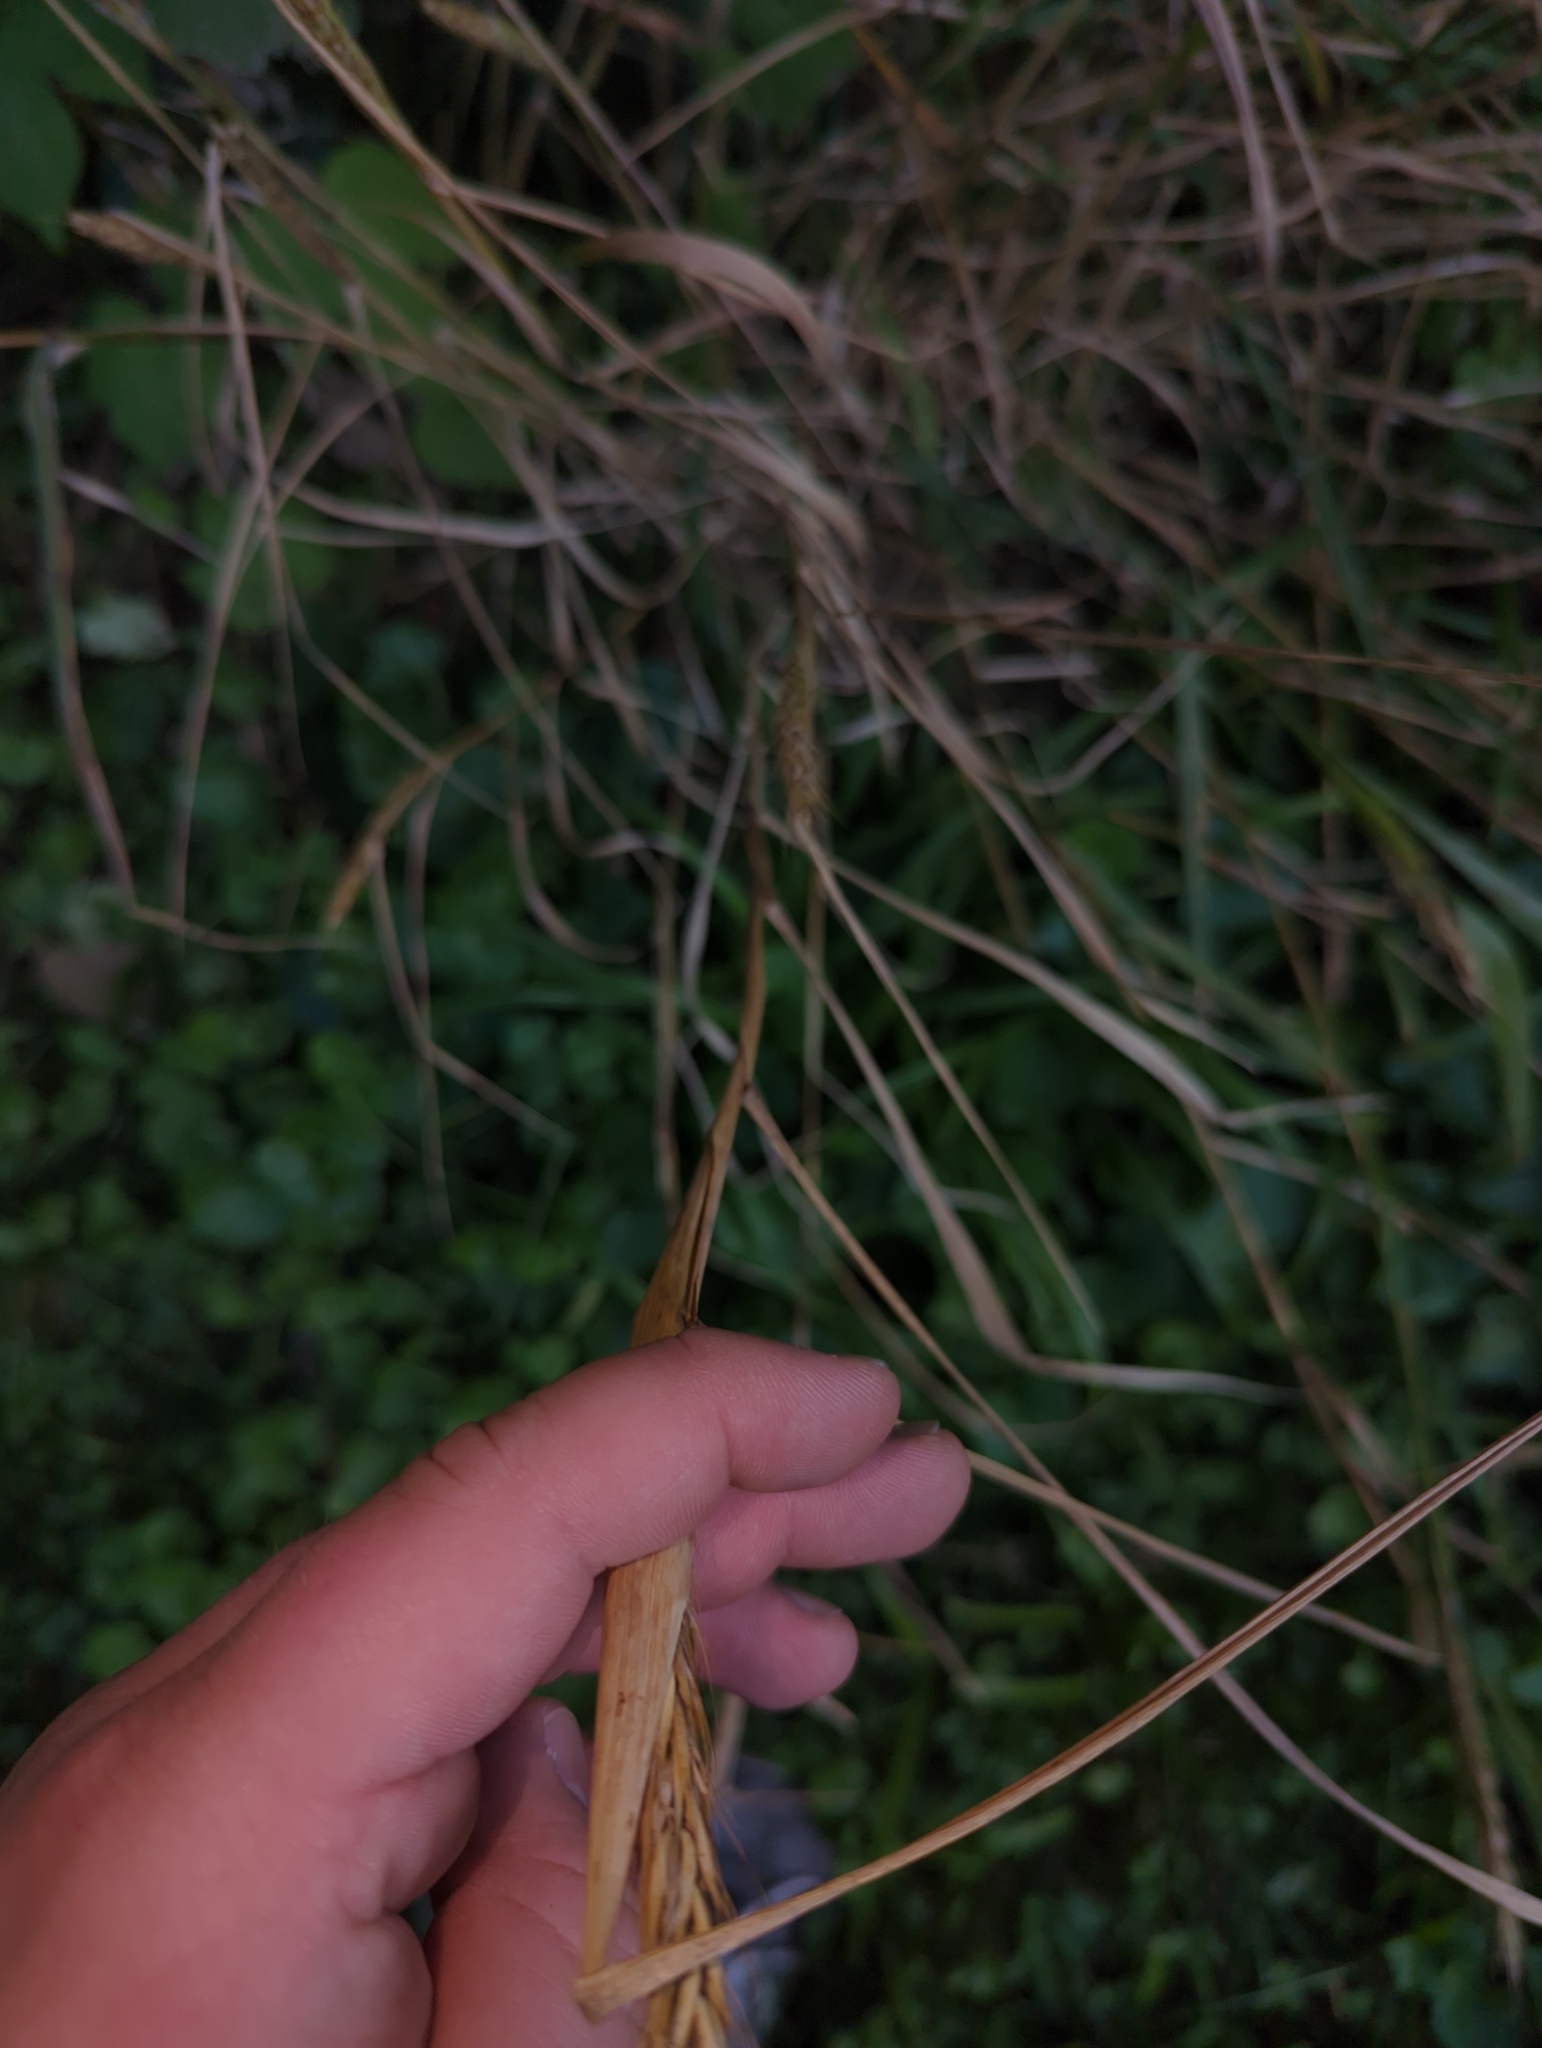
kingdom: Plantae
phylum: Tracheophyta
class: Liliopsida
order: Poales
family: Poaceae
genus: Elymus
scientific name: Elymus virginicus
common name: Common eastern wildrye
